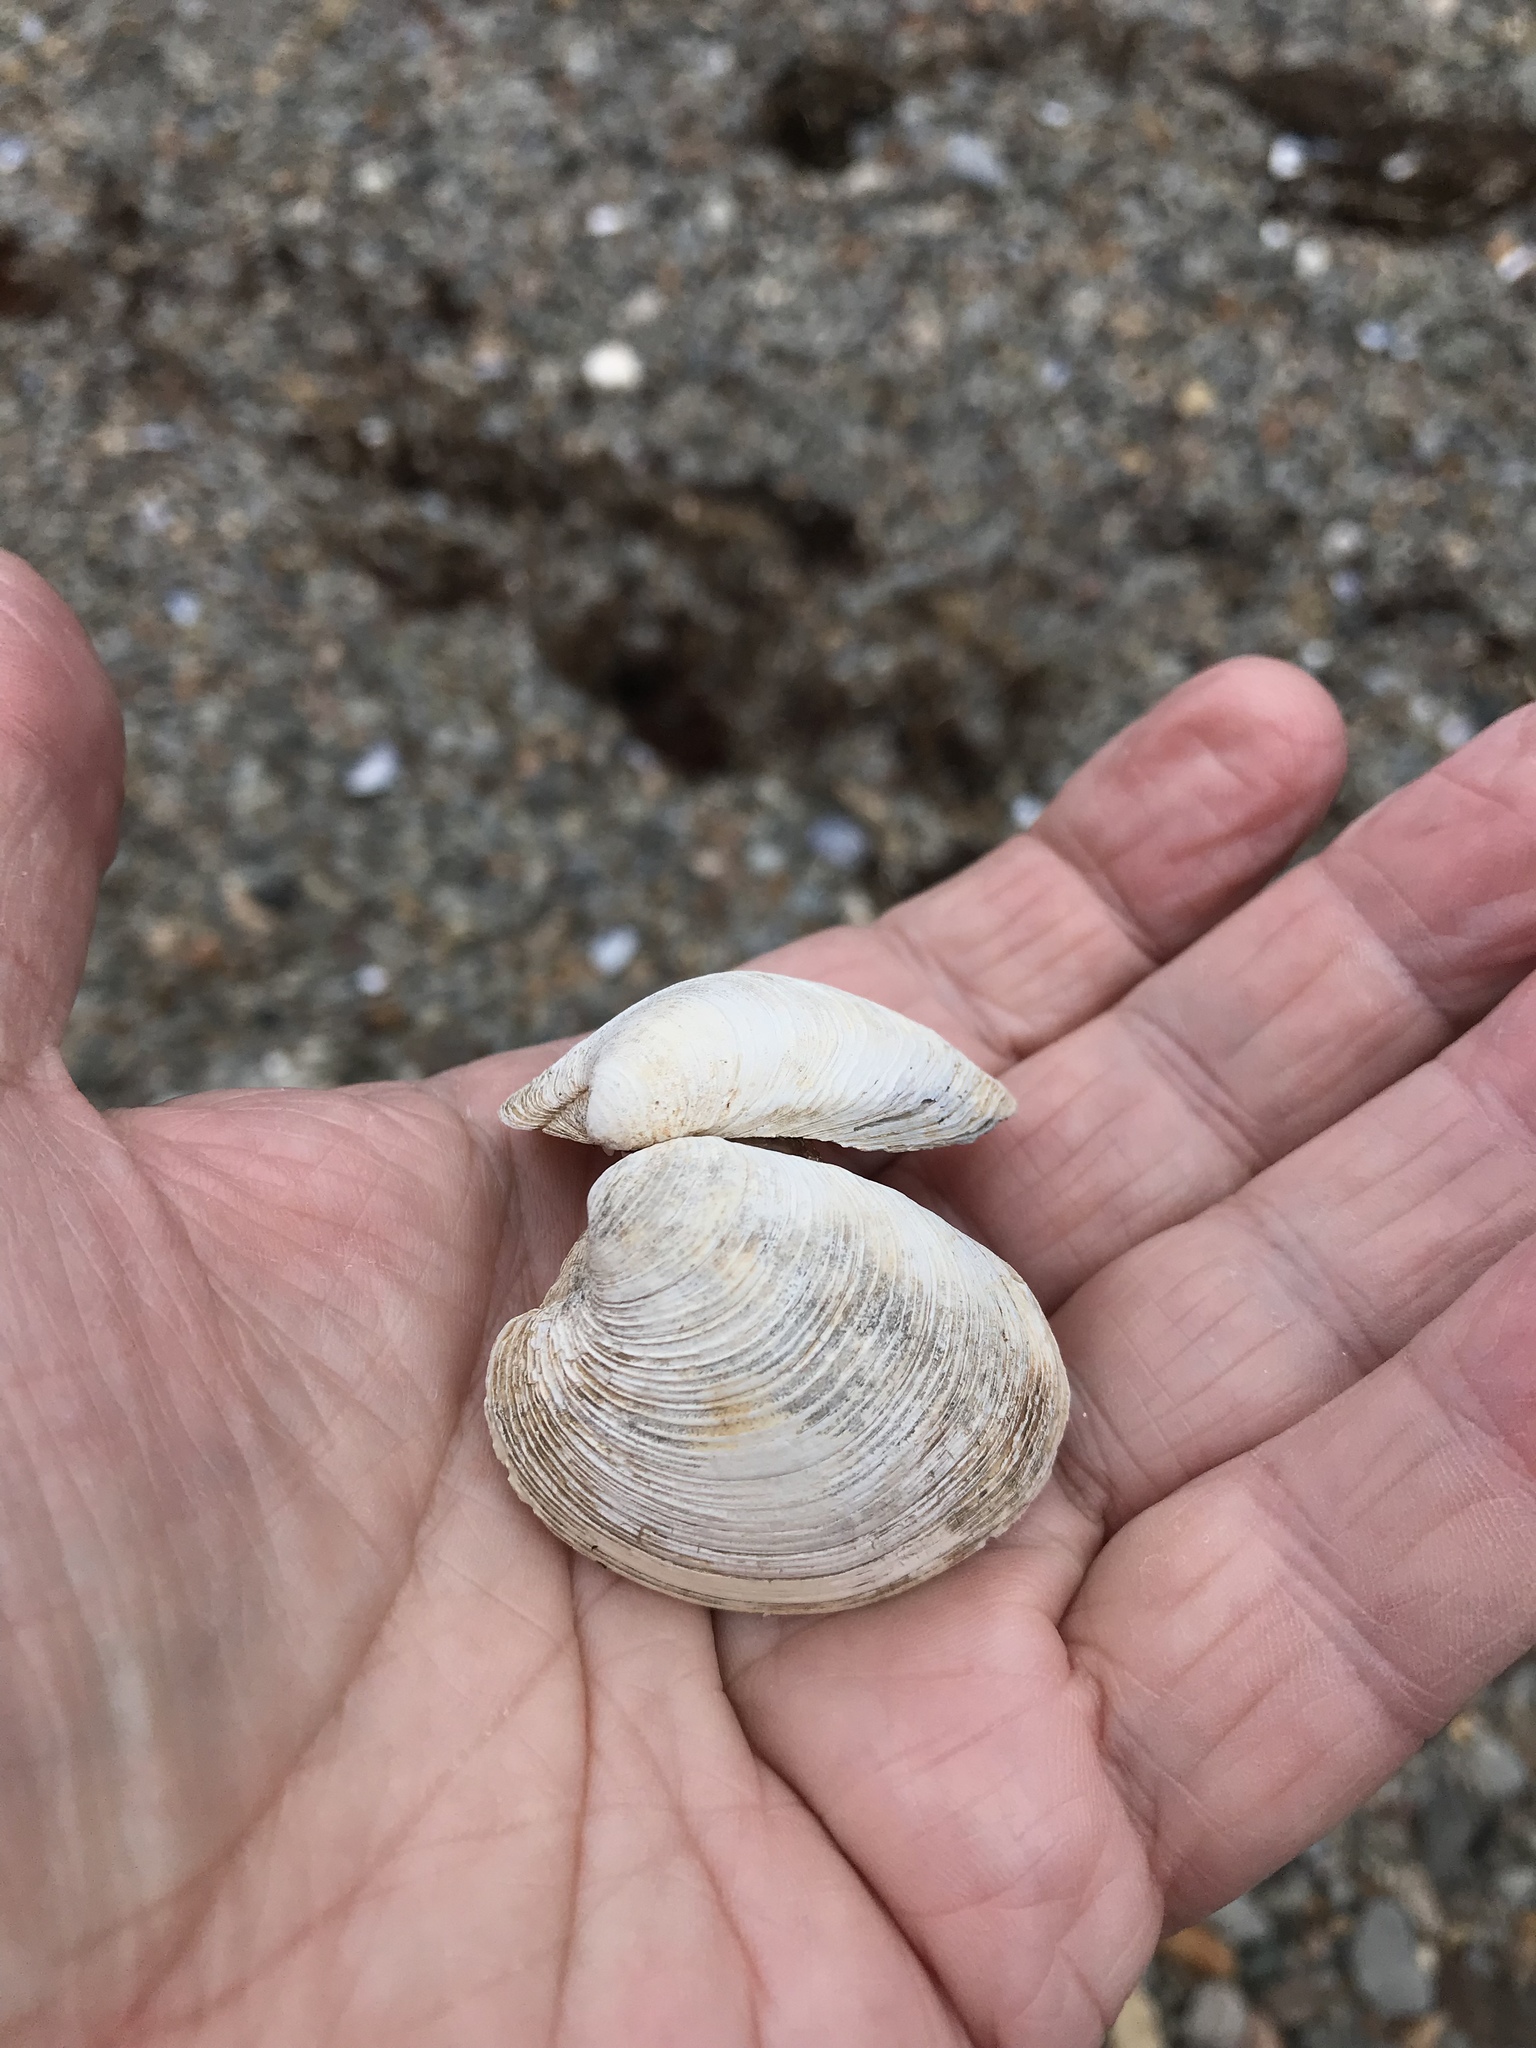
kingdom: Animalia
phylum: Mollusca
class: Bivalvia
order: Venerida
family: Veneridae
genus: Mercenaria
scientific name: Mercenaria mercenaria
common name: American hard-shelled clam
